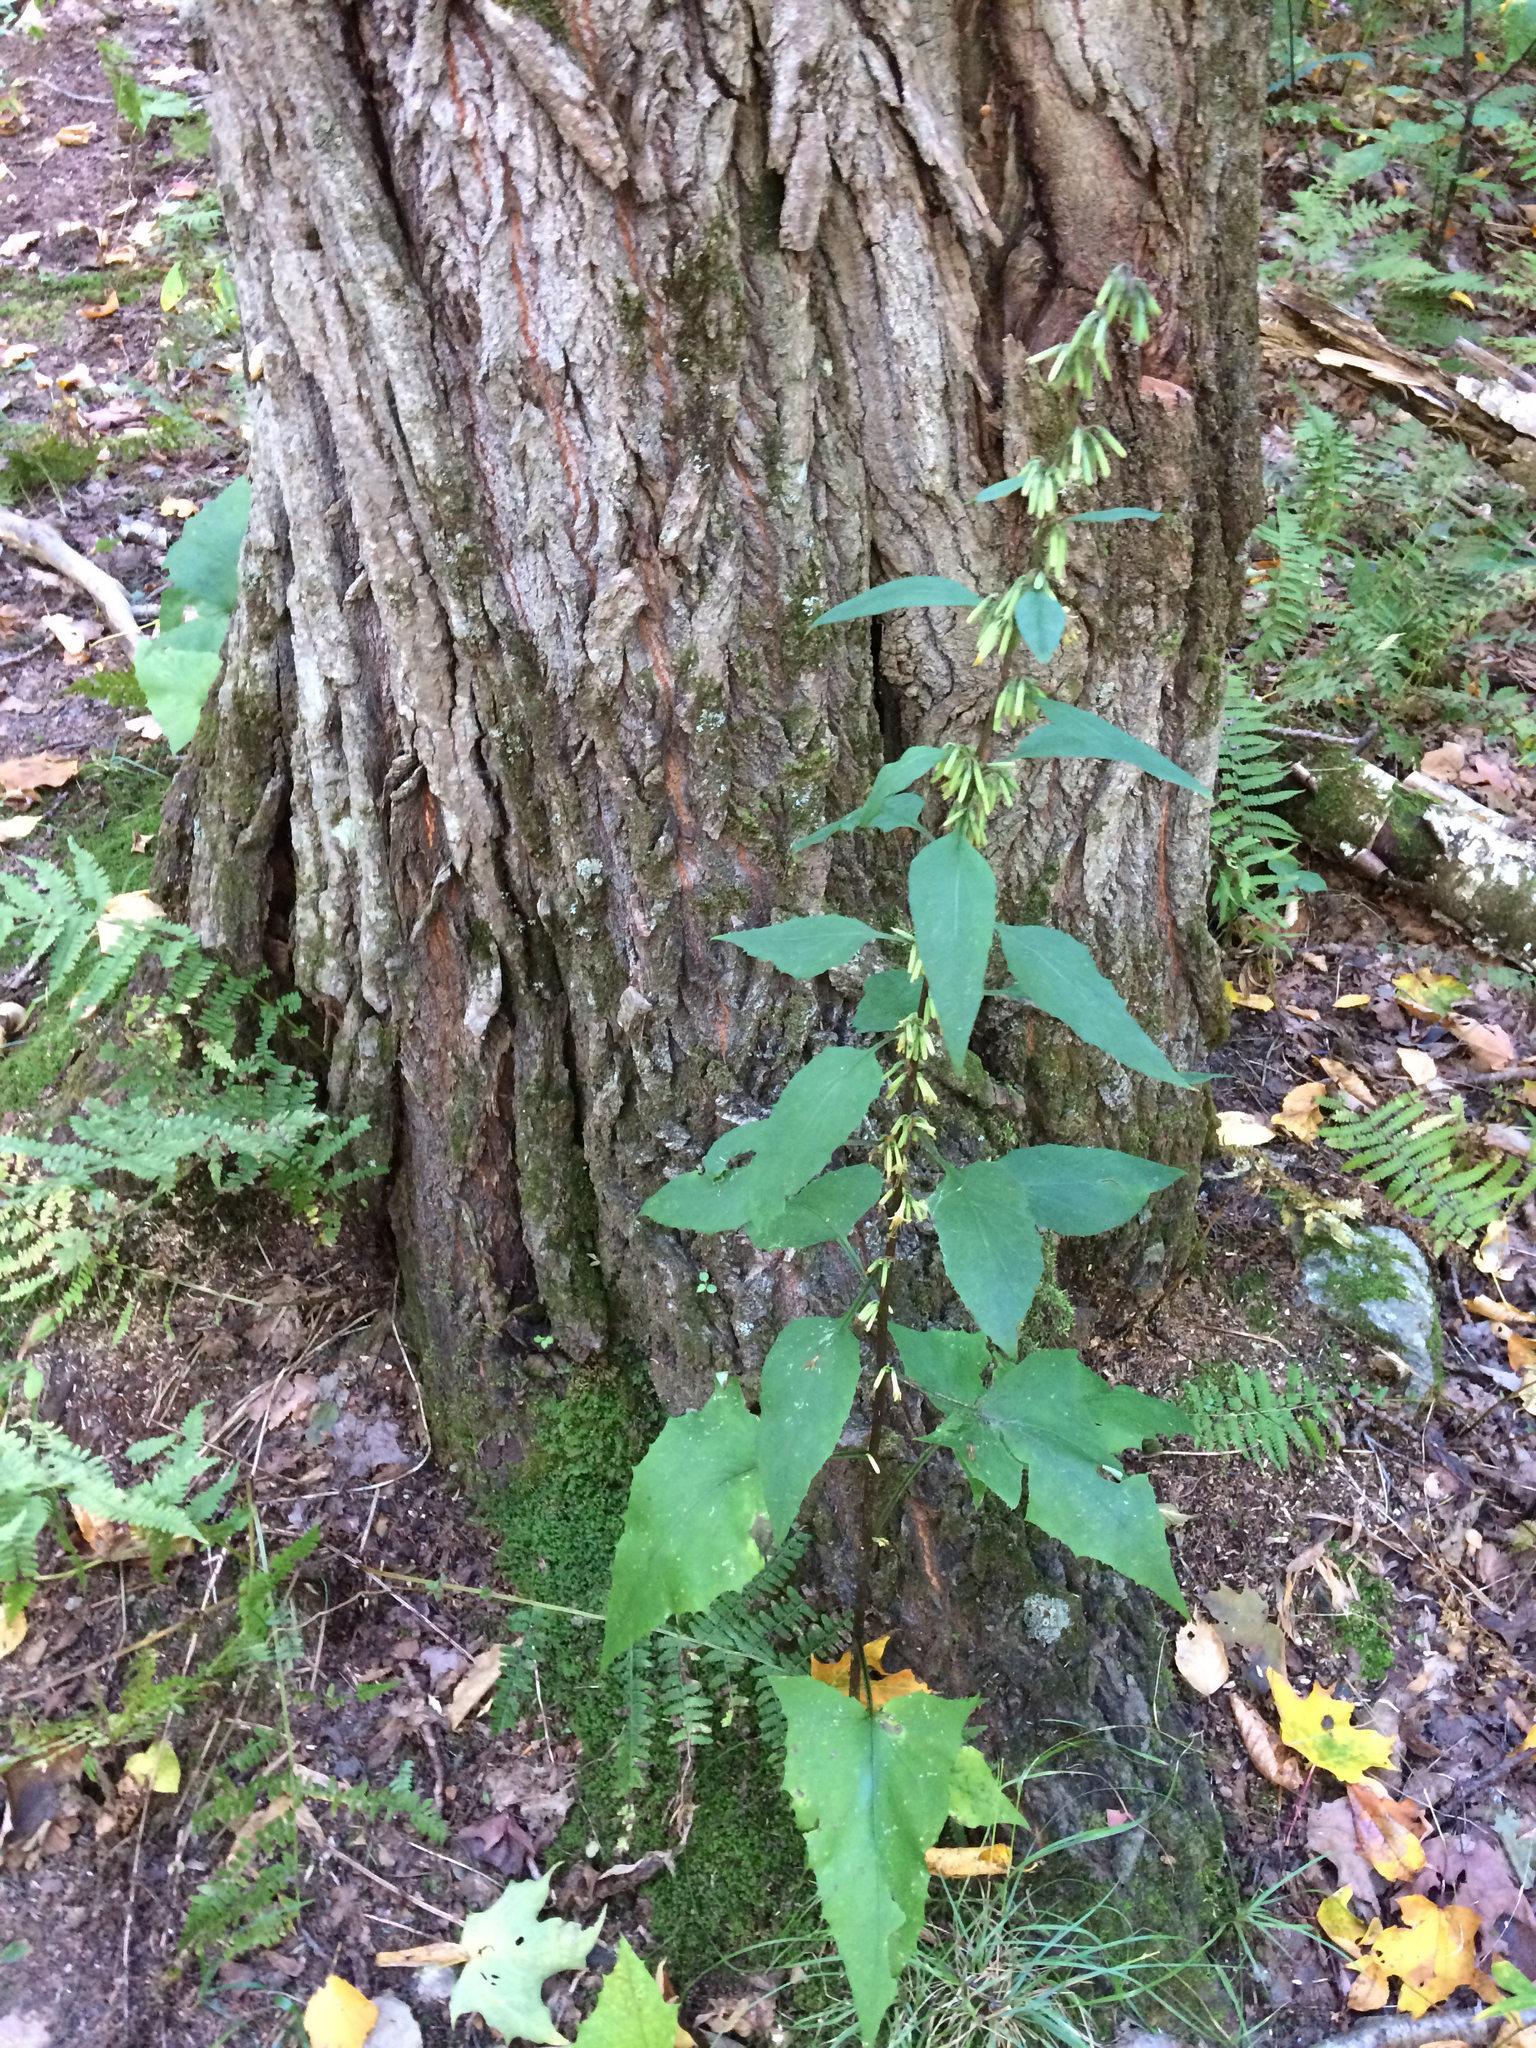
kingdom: Plantae
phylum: Tracheophyta
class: Magnoliopsida
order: Asterales
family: Asteraceae
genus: Nabalus
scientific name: Nabalus
